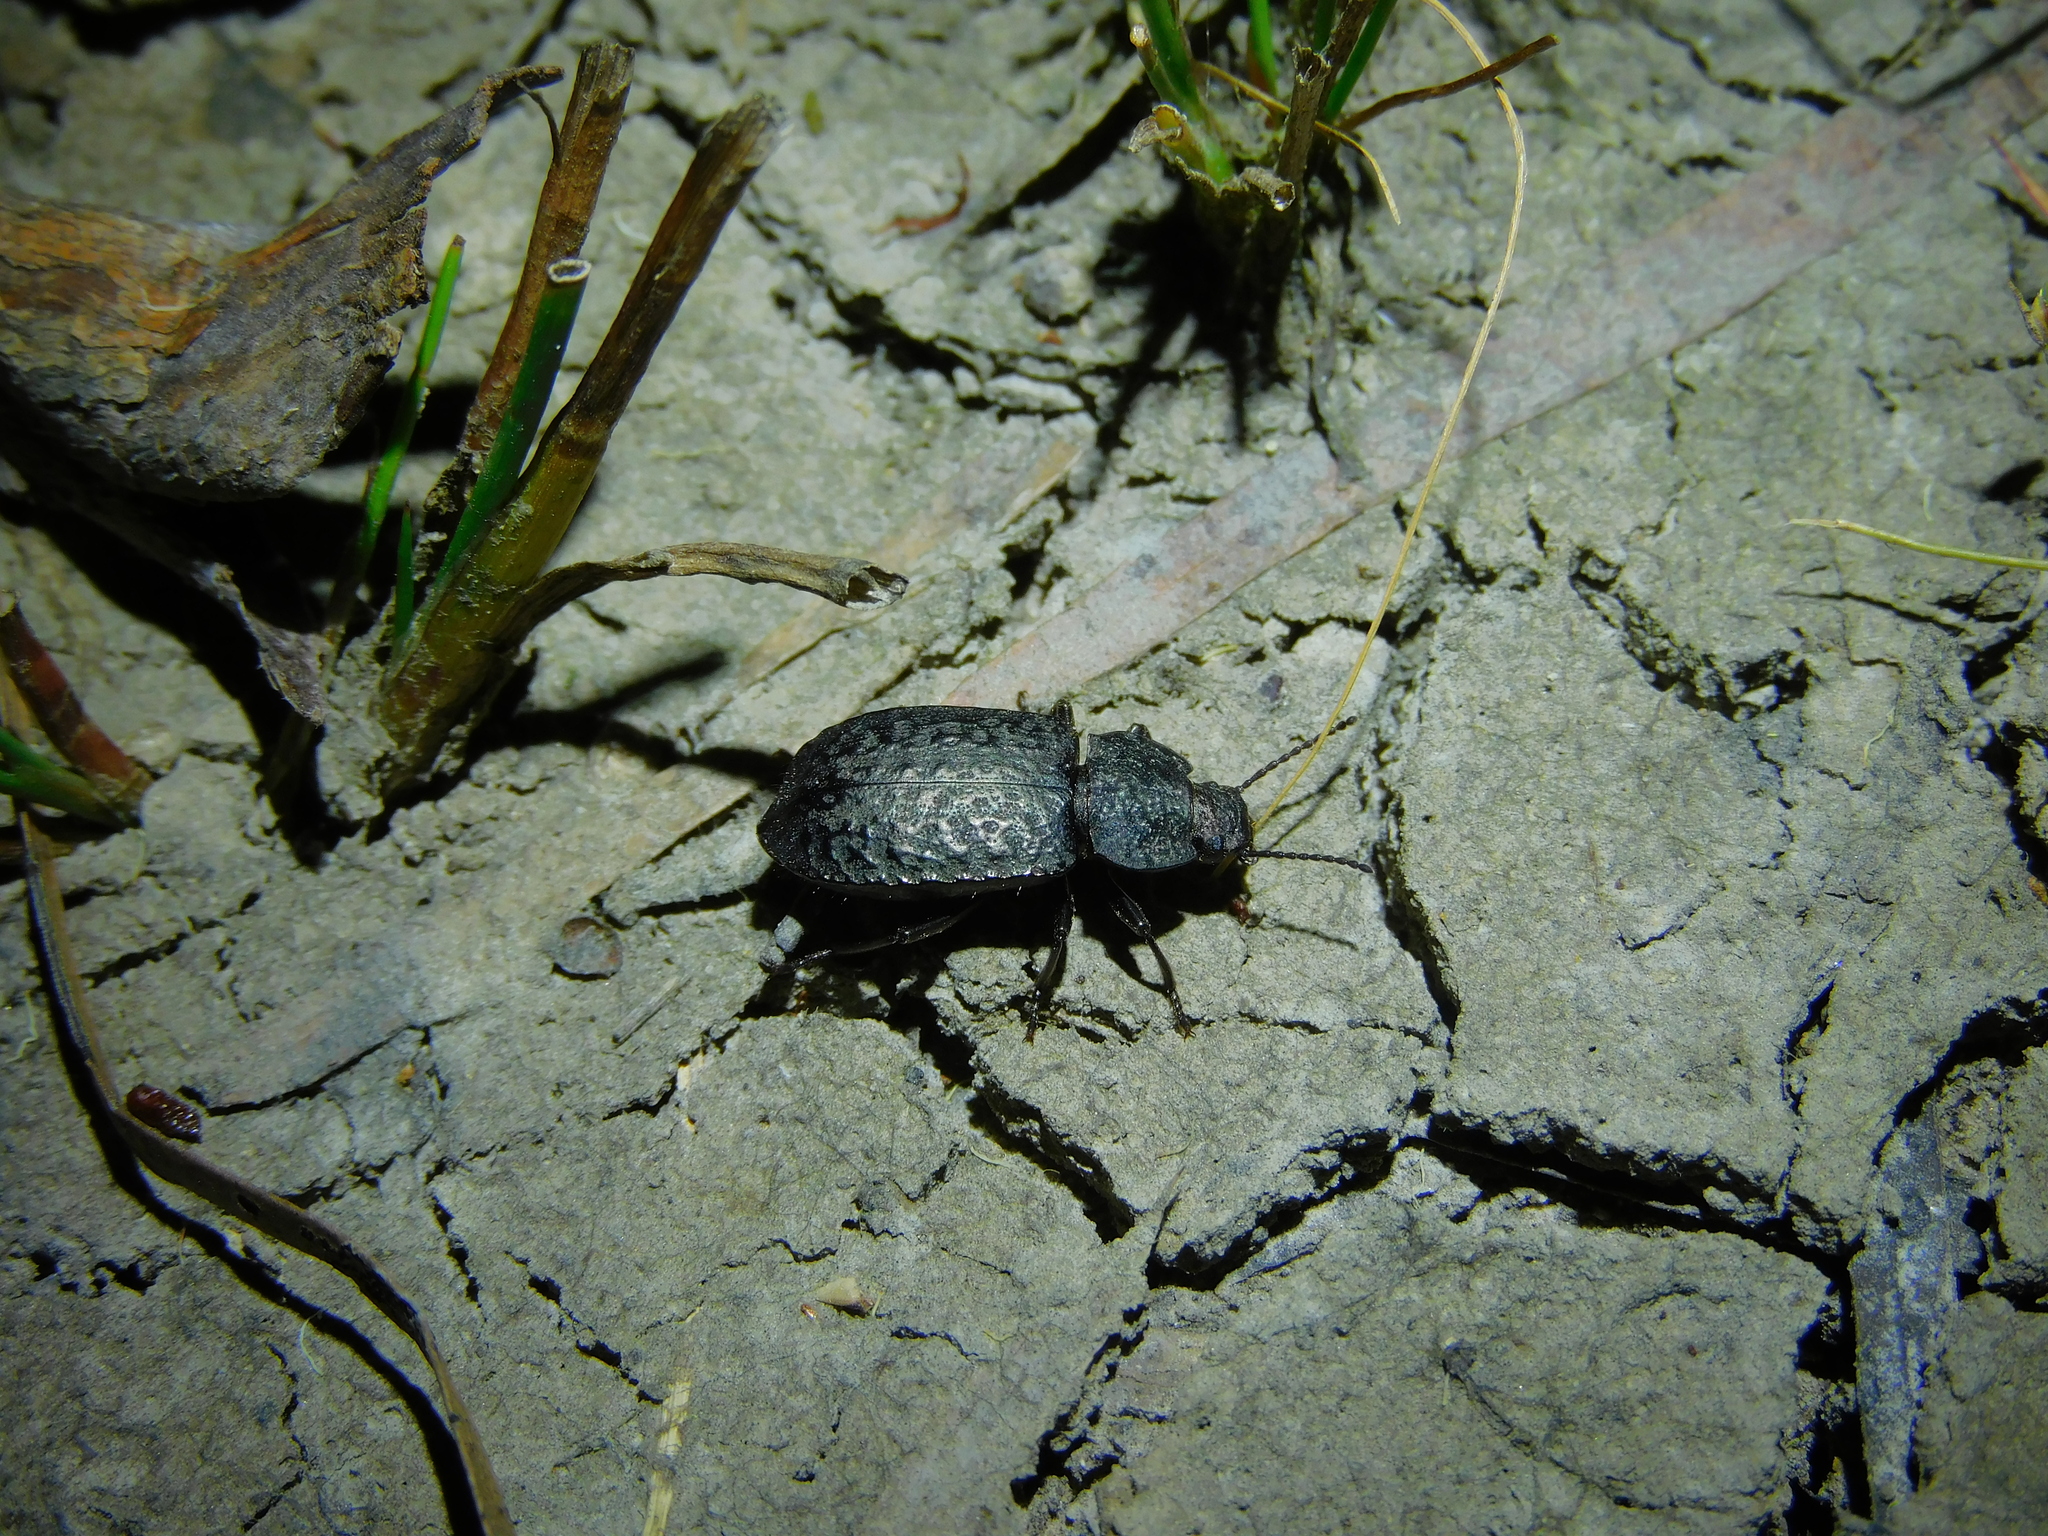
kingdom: Animalia
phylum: Arthropoda
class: Insecta
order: Coleoptera
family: Tenebrionidae
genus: Coripera
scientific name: Coripera deplanata
